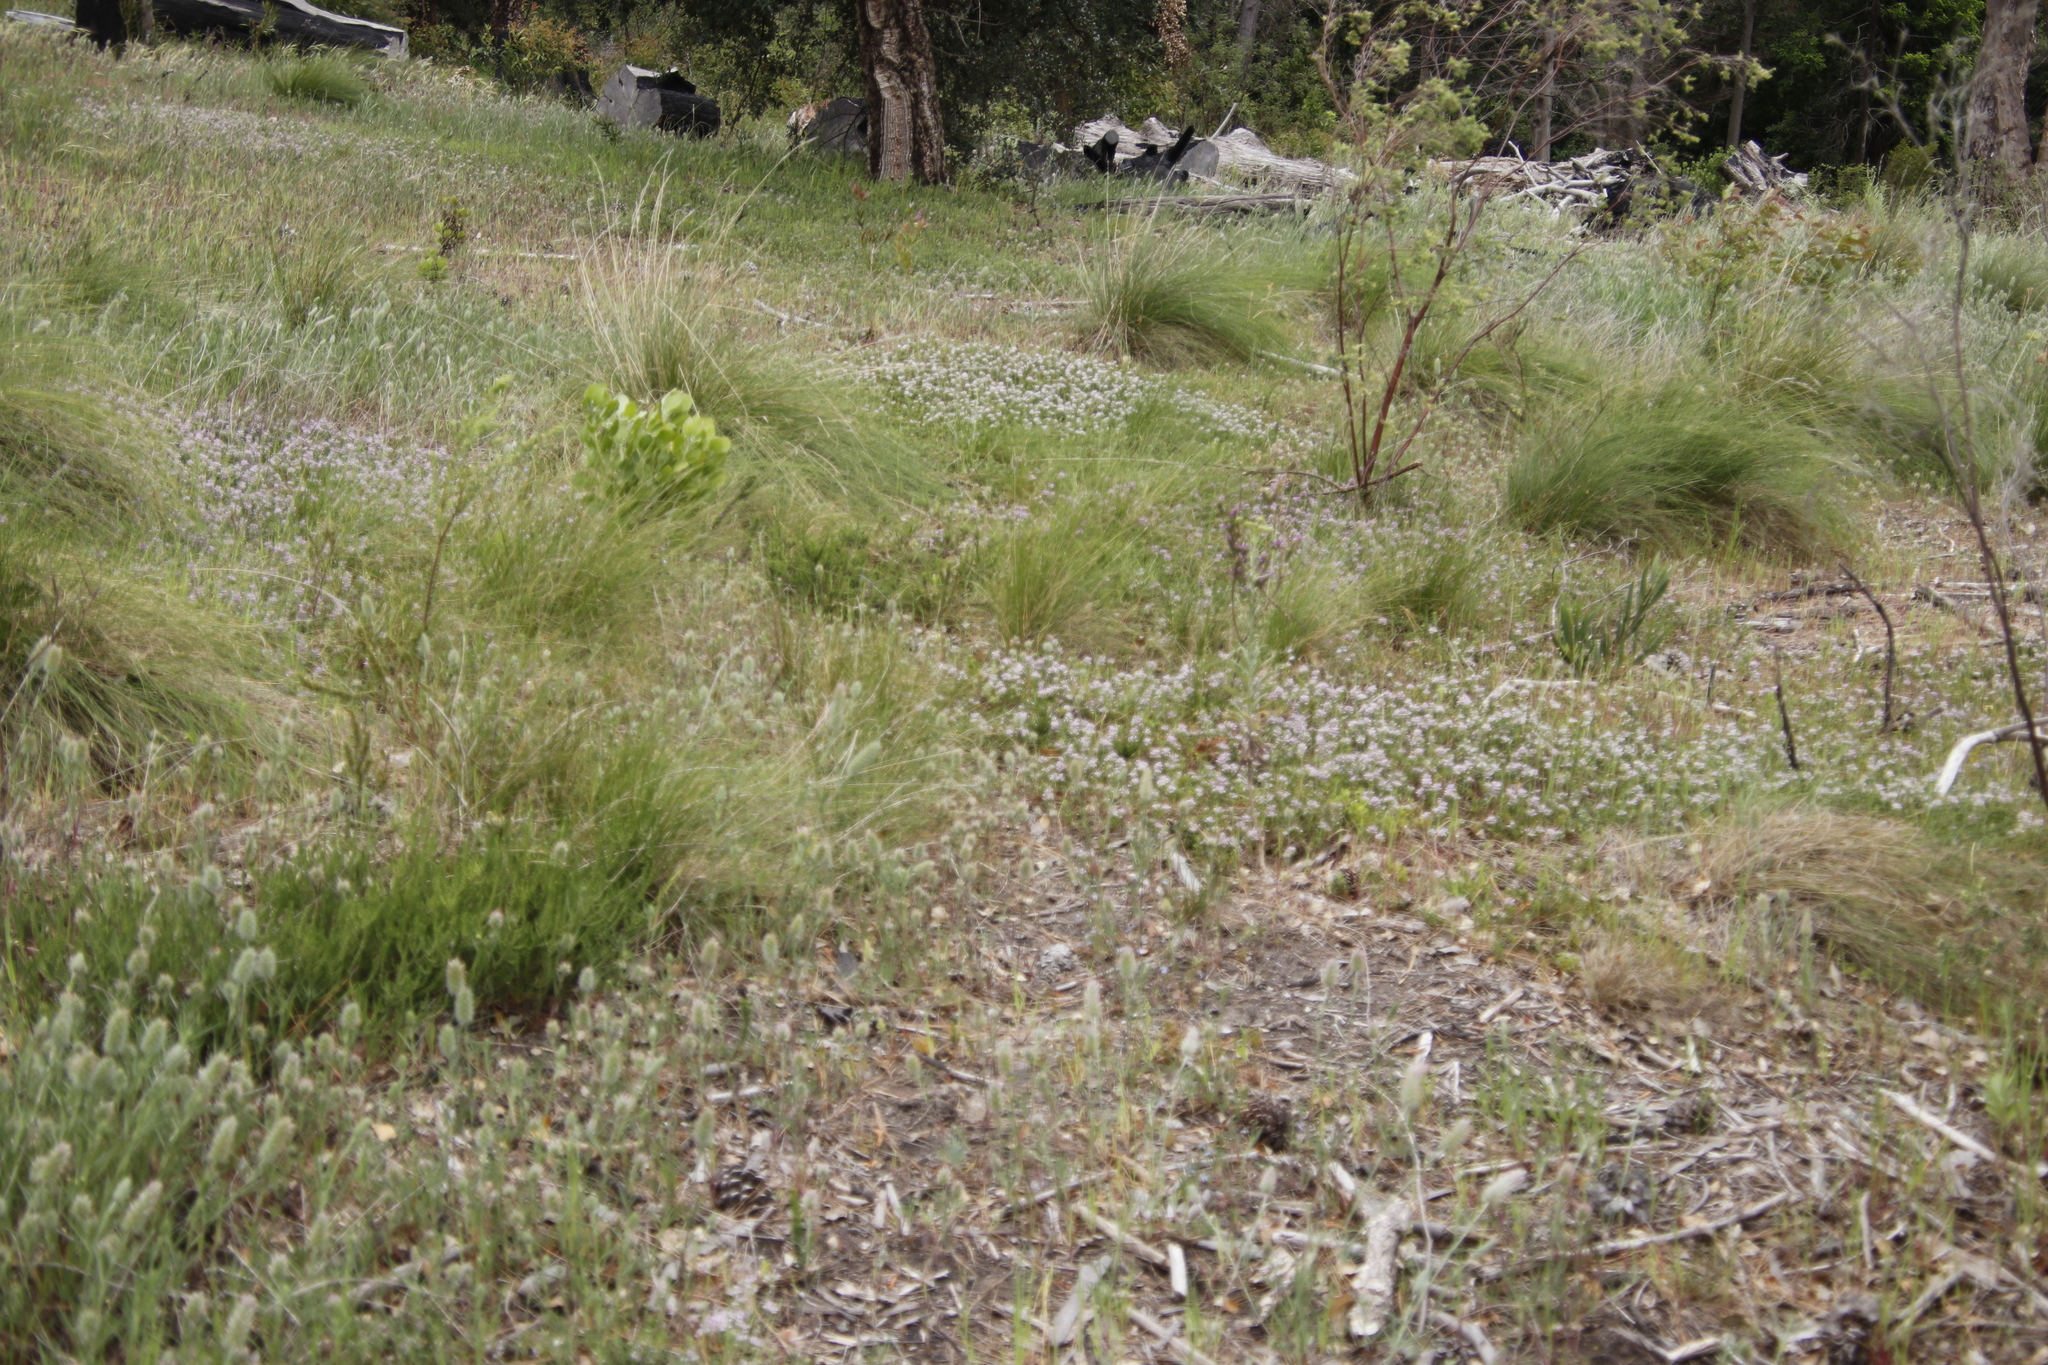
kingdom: Plantae
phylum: Tracheophyta
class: Magnoliopsida
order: Fabales
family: Fabaceae
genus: Psoralea
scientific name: Psoralea
